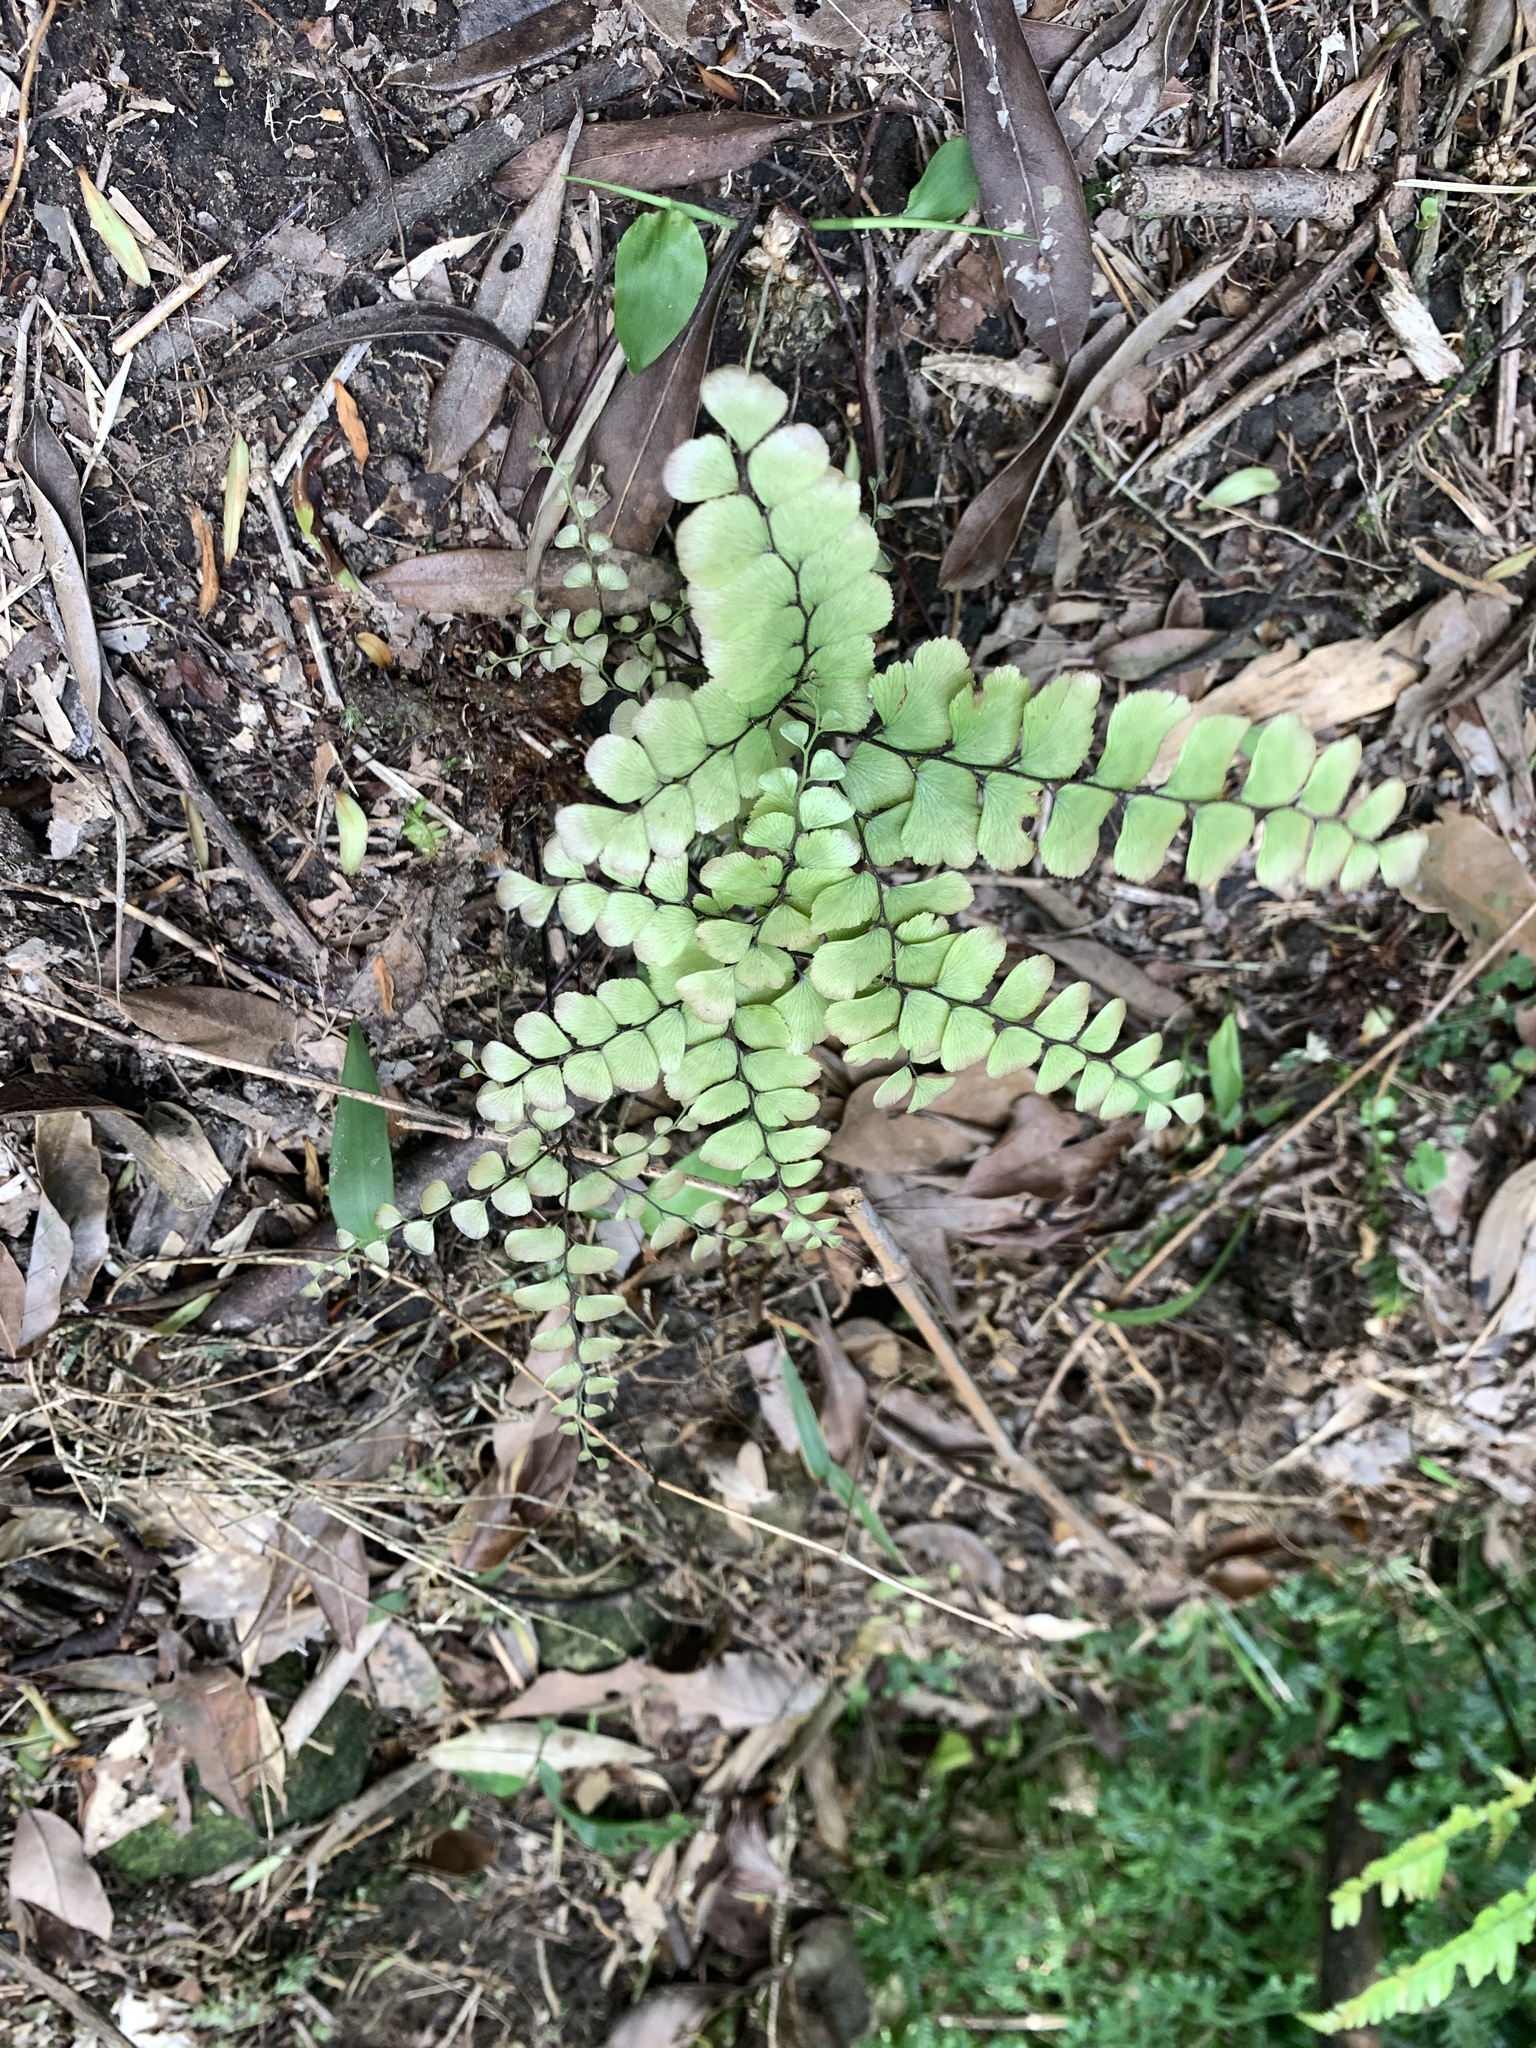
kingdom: Plantae
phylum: Tracheophyta
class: Polypodiopsida
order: Polypodiales
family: Pteridaceae
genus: Adiantum
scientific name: Adiantum flabellulatum
